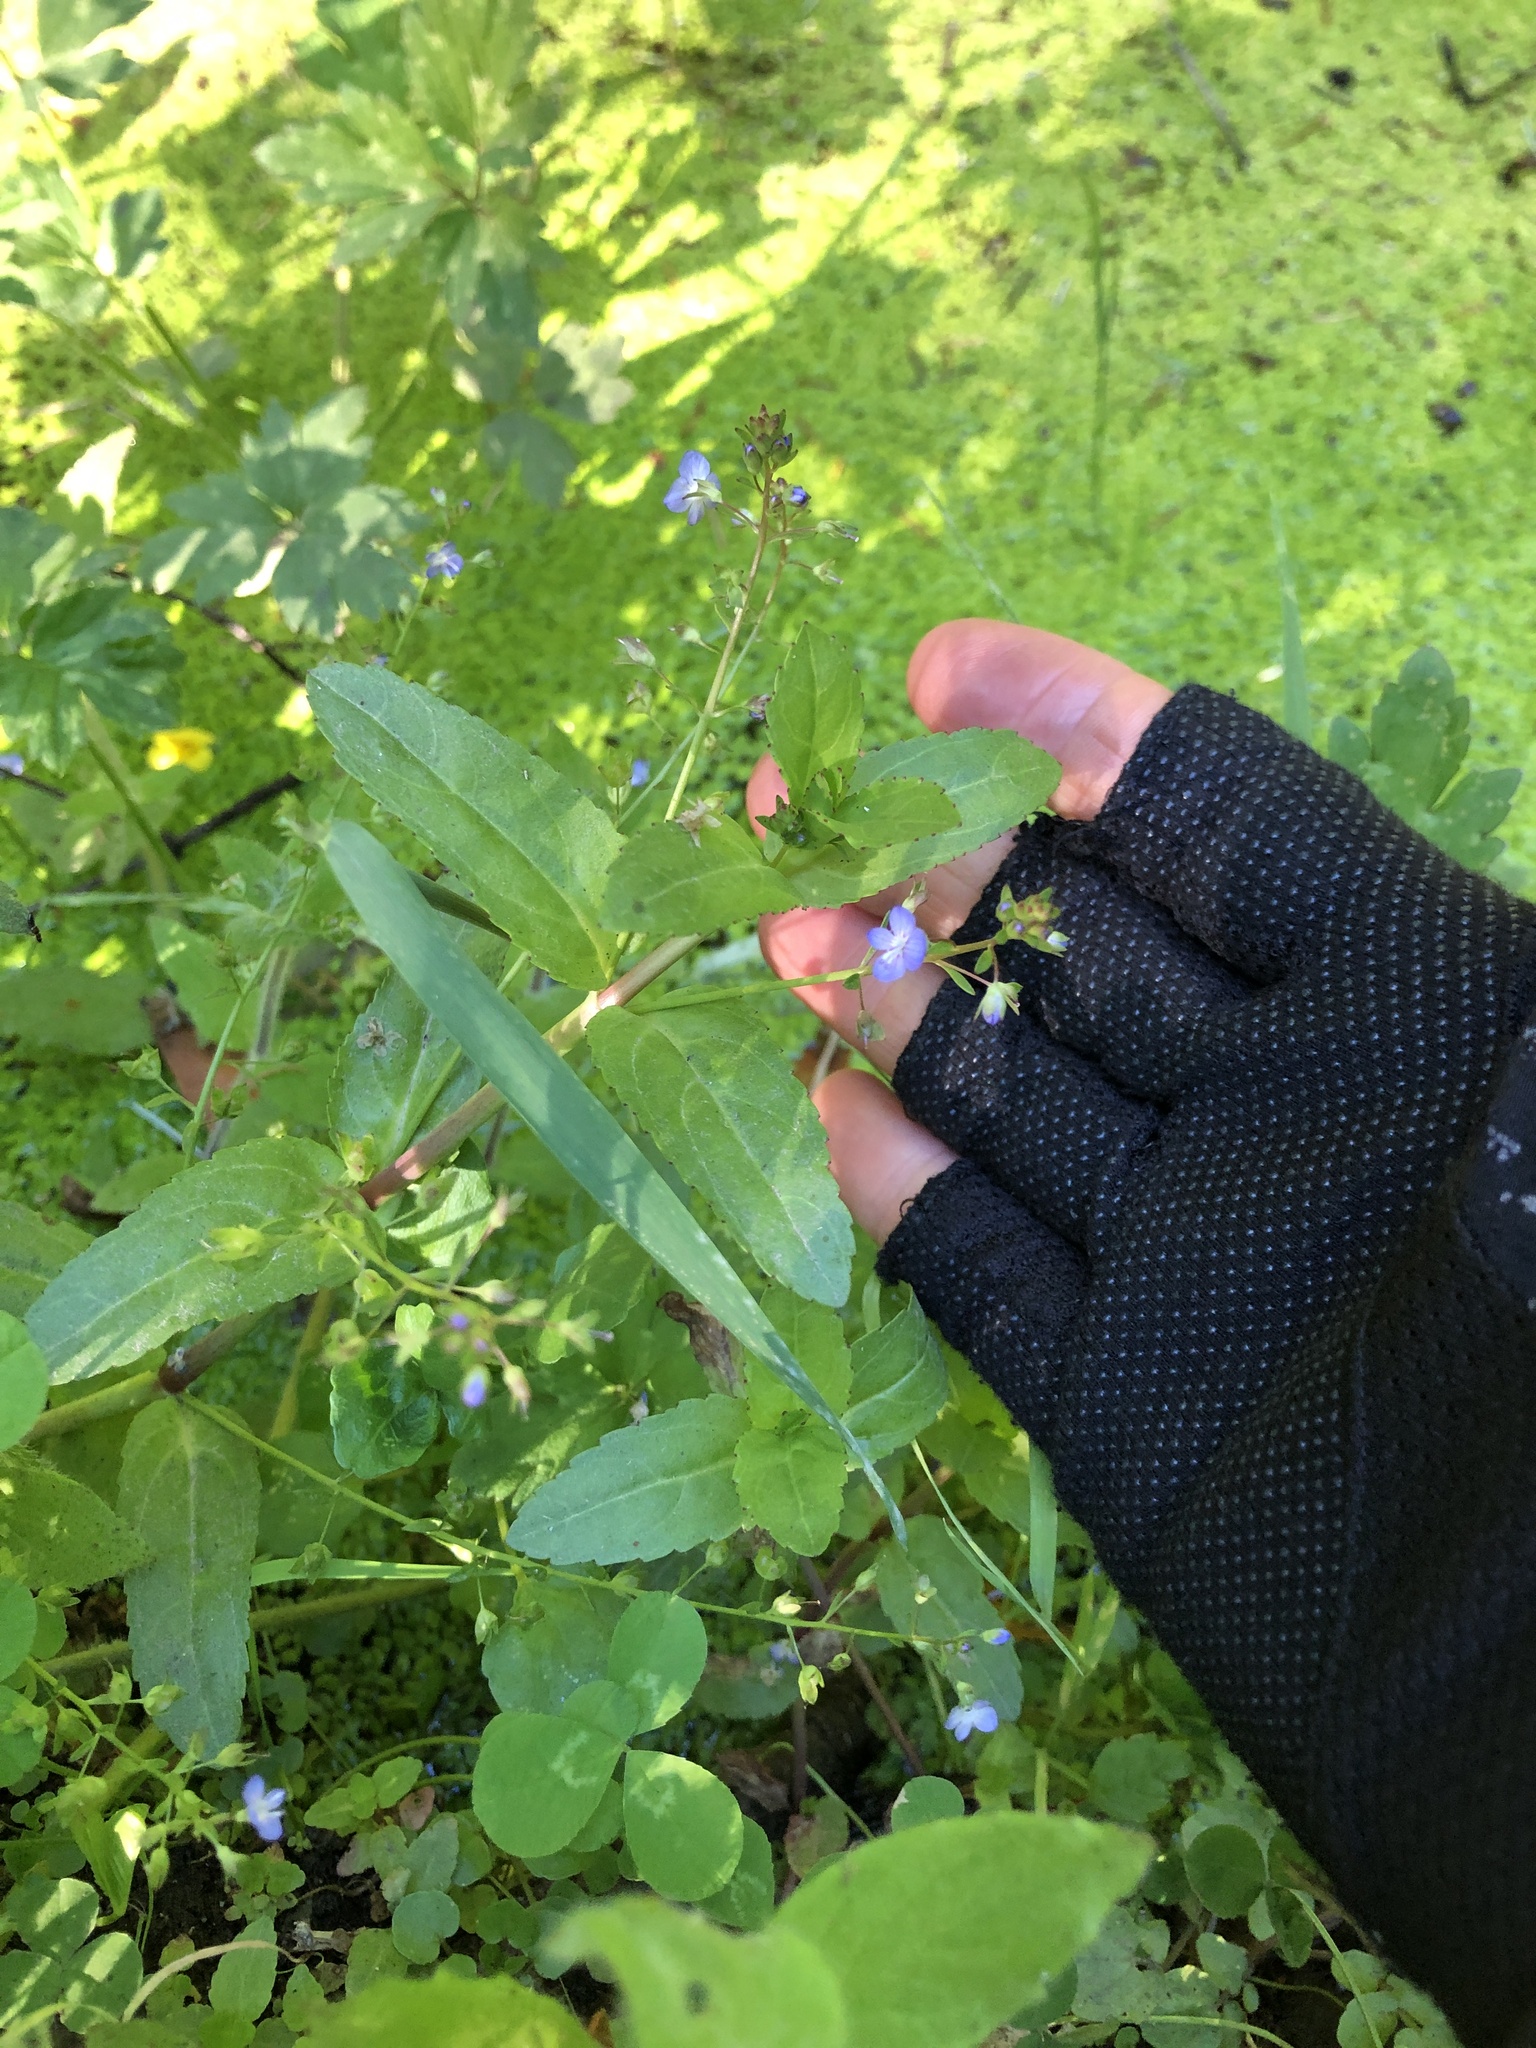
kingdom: Plantae
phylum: Tracheophyta
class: Magnoliopsida
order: Lamiales
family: Plantaginaceae
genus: Veronica
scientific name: Veronica americana
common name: American brooklime
